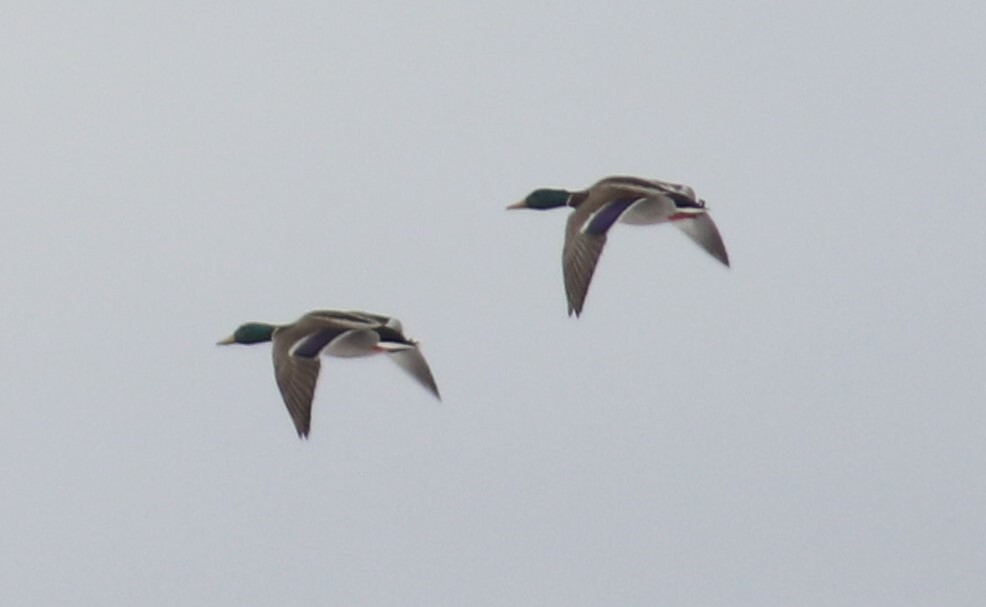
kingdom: Animalia
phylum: Chordata
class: Aves
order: Anseriformes
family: Anatidae
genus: Anas
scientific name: Anas platyrhynchos
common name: Mallard
